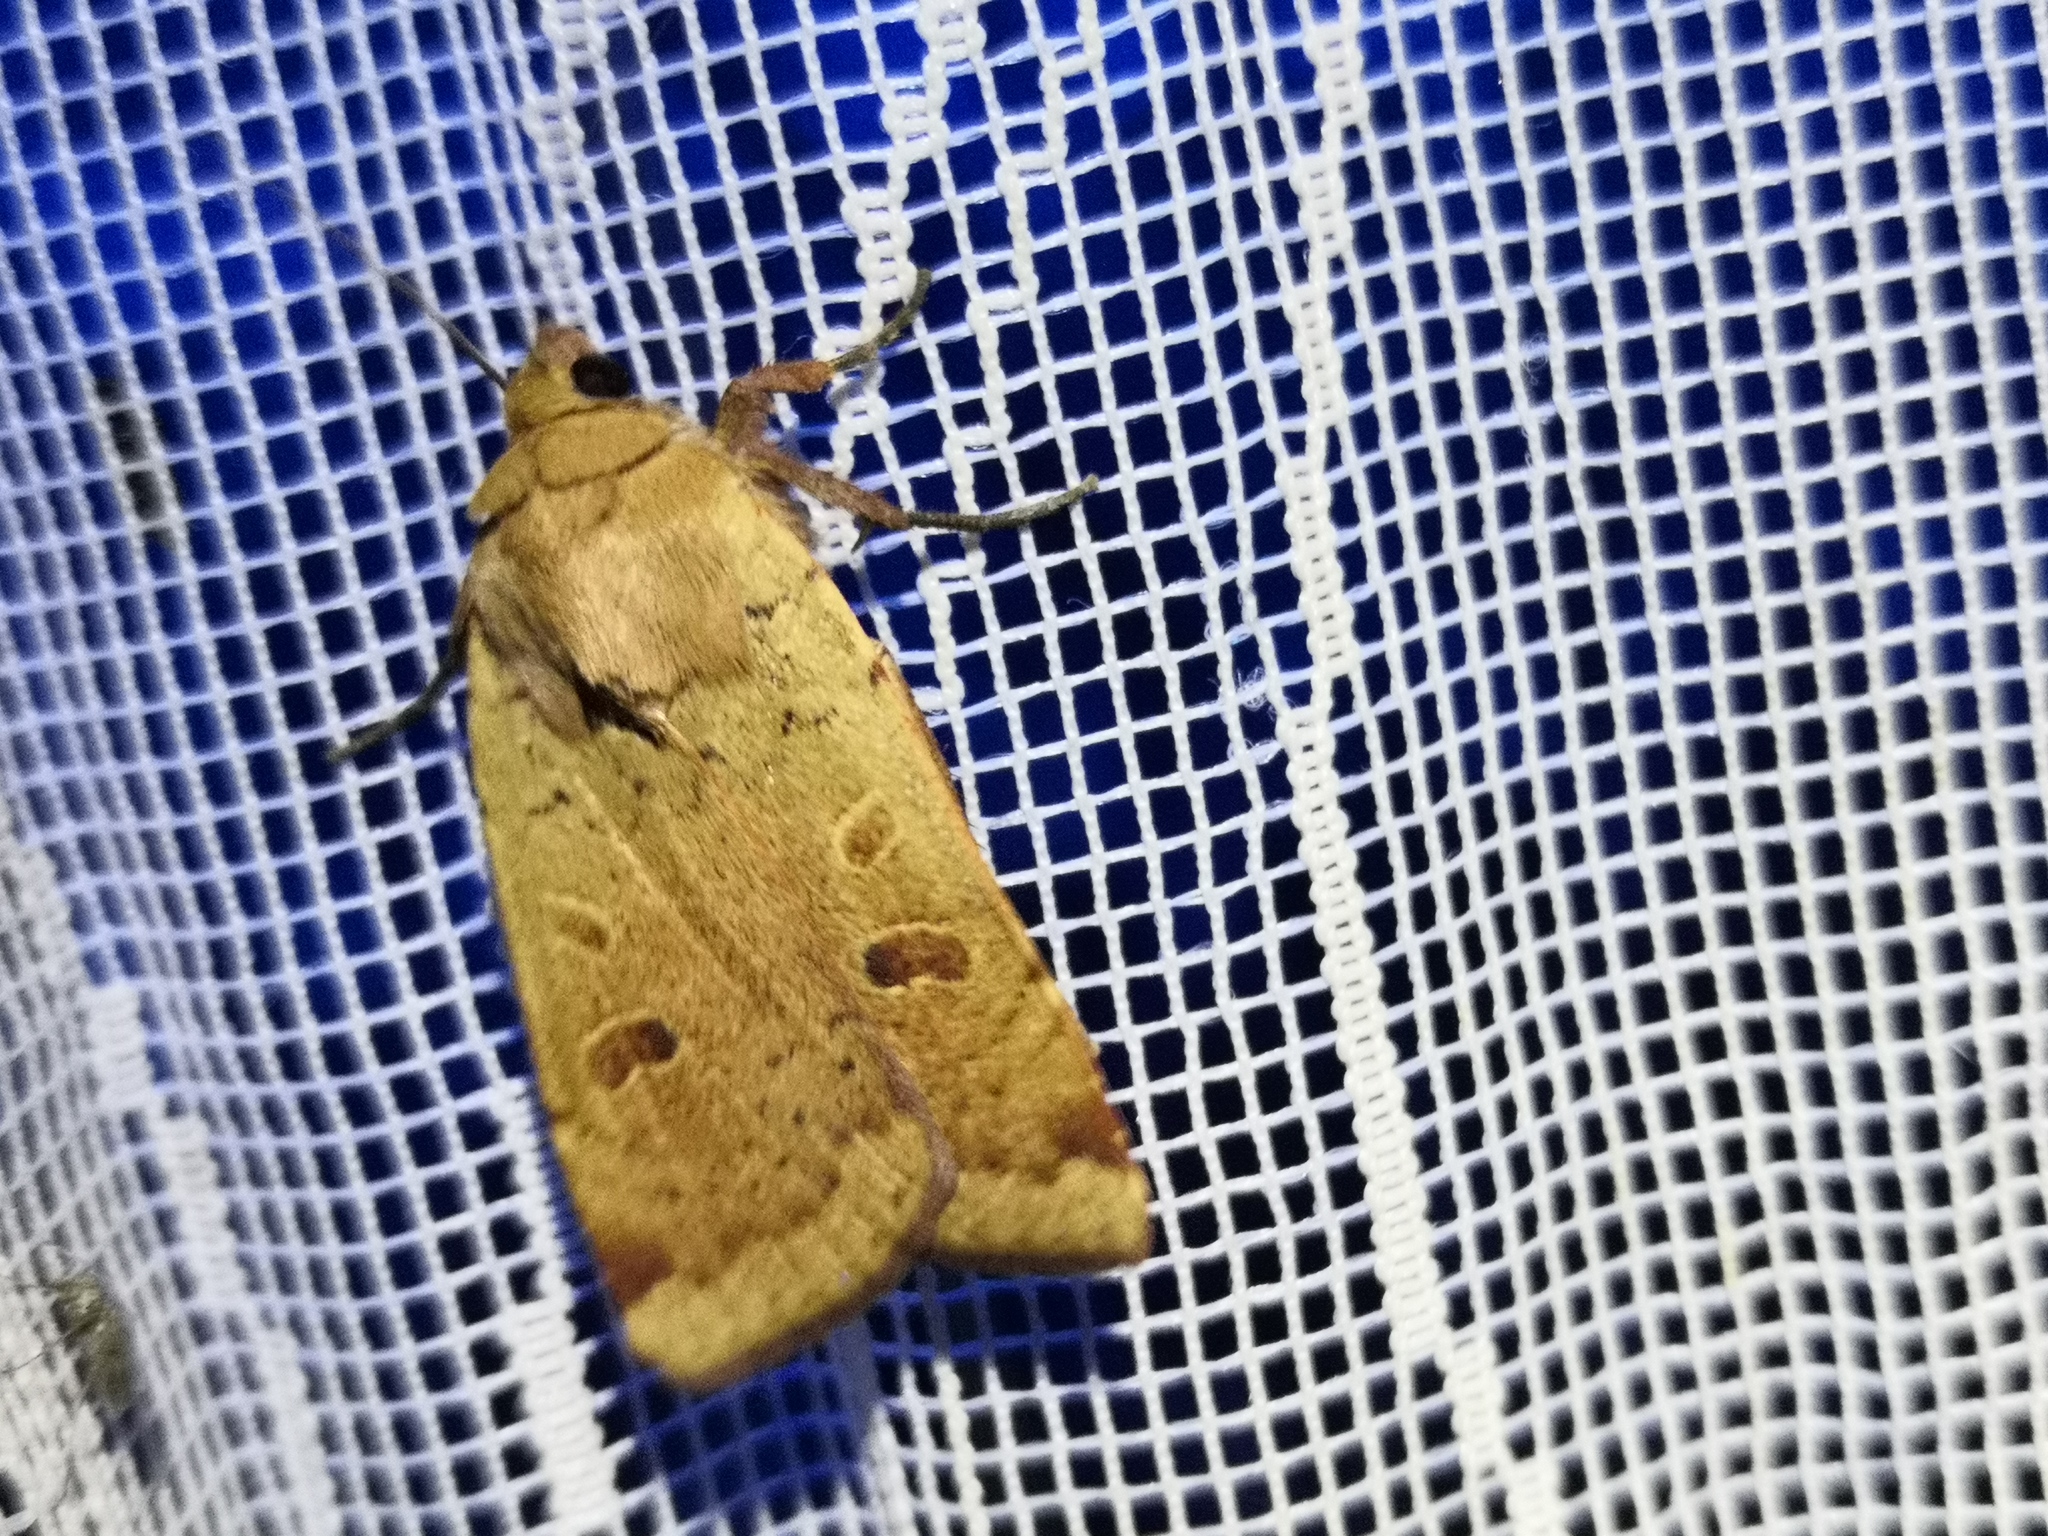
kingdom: Animalia
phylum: Arthropoda
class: Insecta
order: Lepidoptera
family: Noctuidae
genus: Noctua
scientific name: Noctua comes
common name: Lesser yellow underwing
